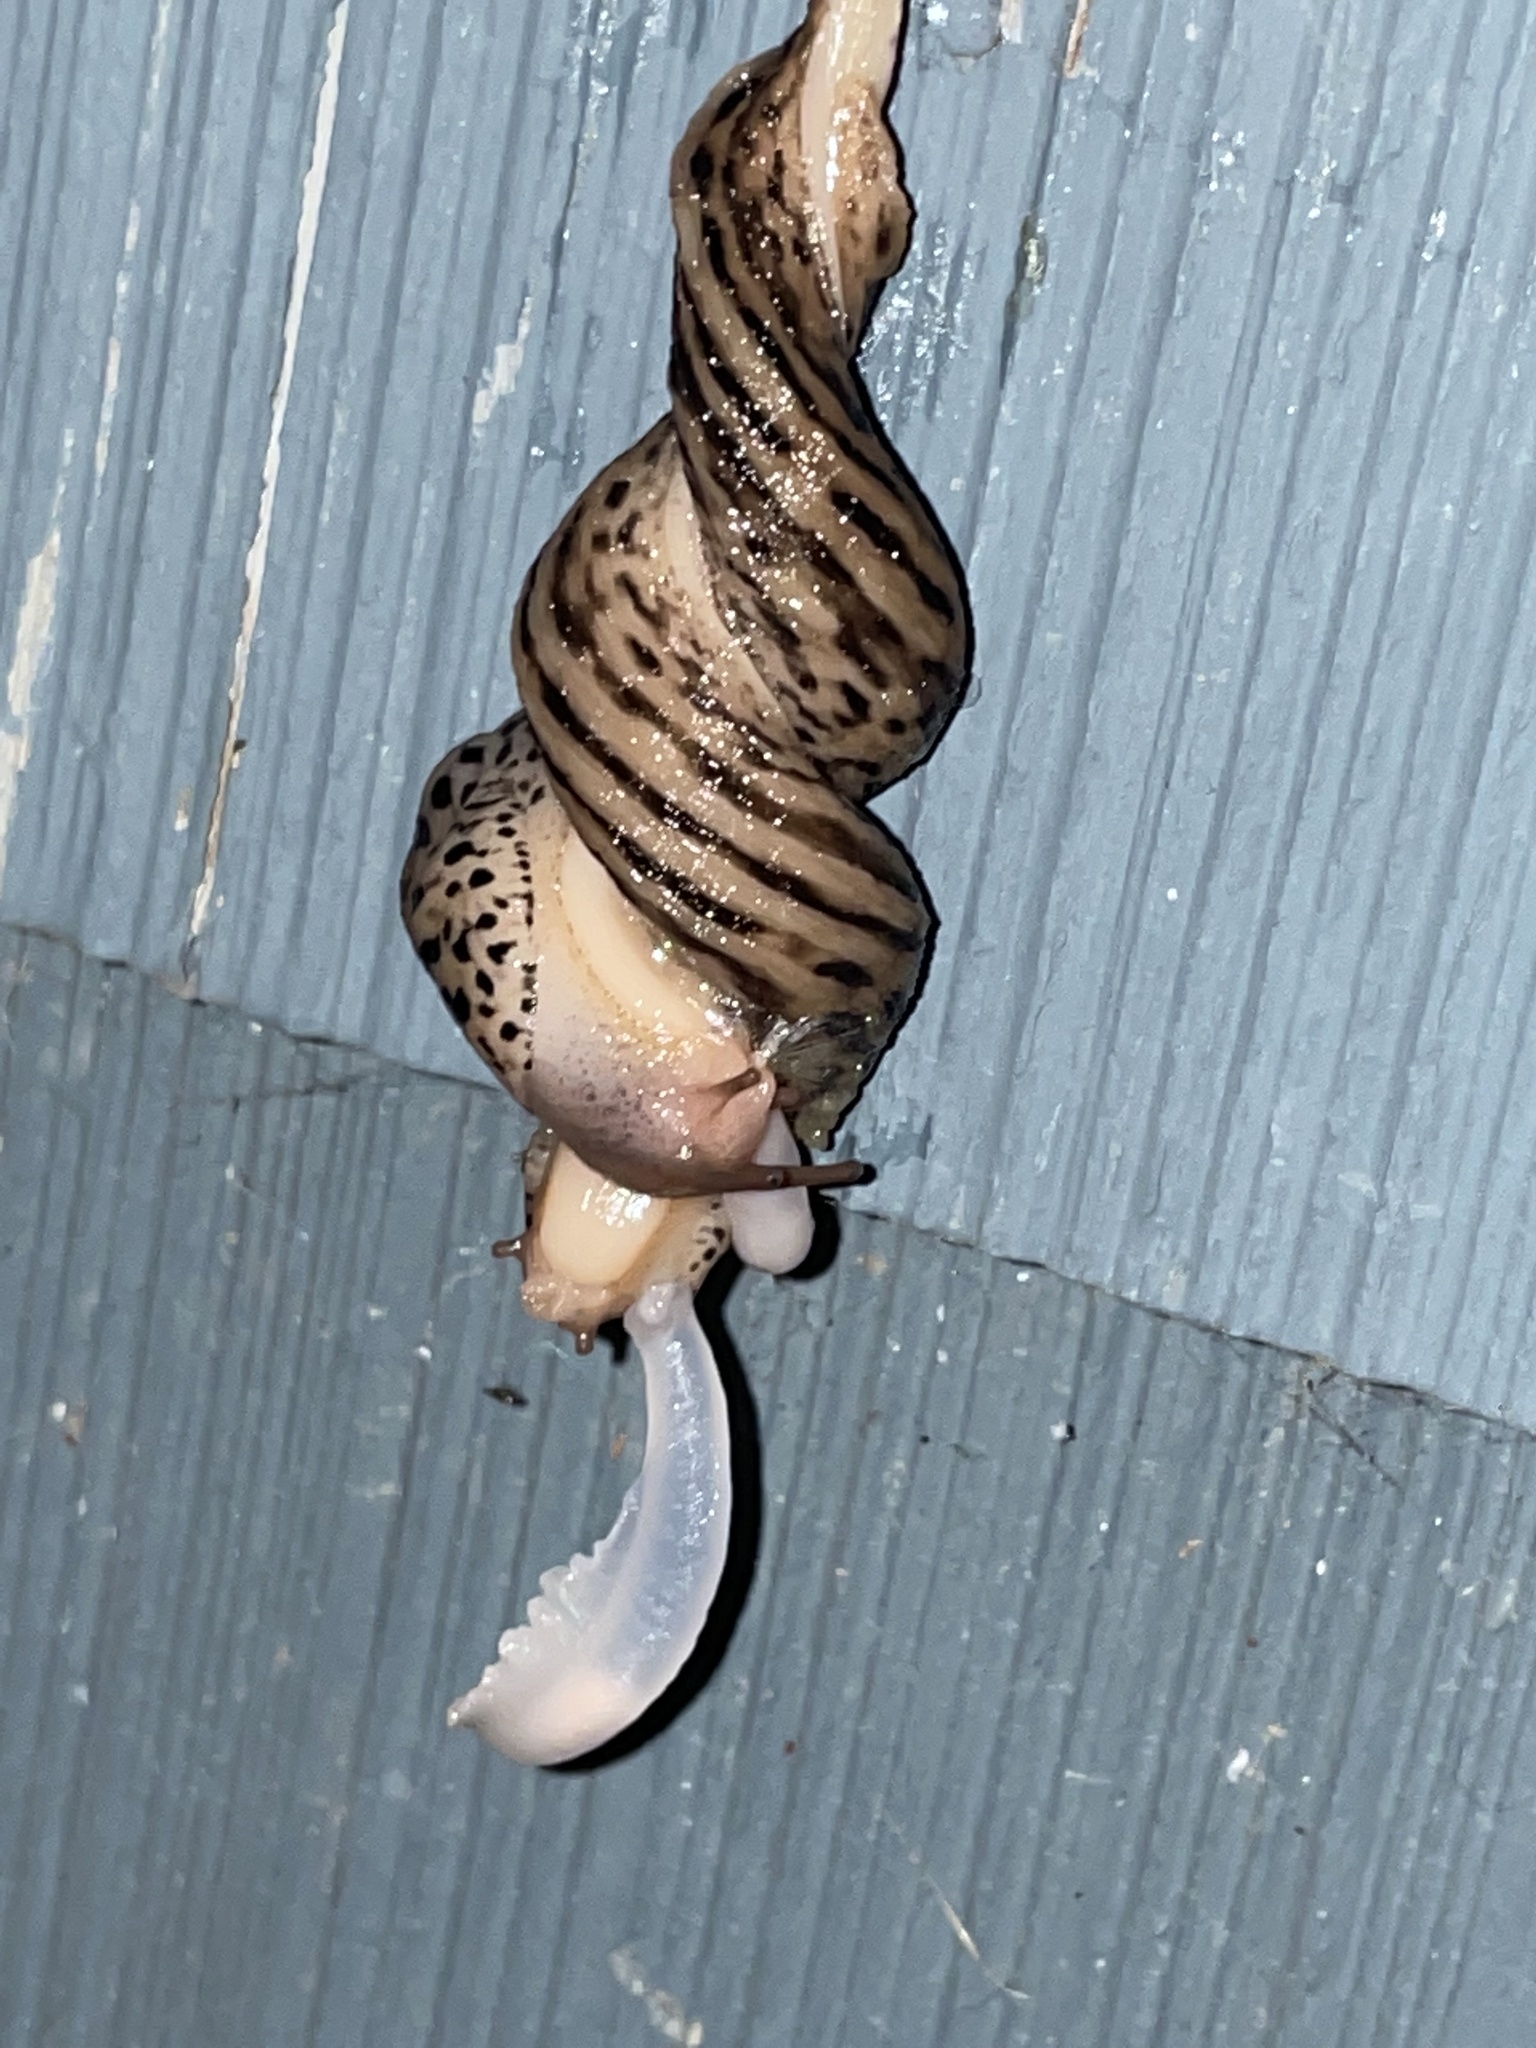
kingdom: Animalia
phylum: Mollusca
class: Gastropoda
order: Stylommatophora
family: Limacidae
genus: Limax
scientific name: Limax maximus
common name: Great grey slug
